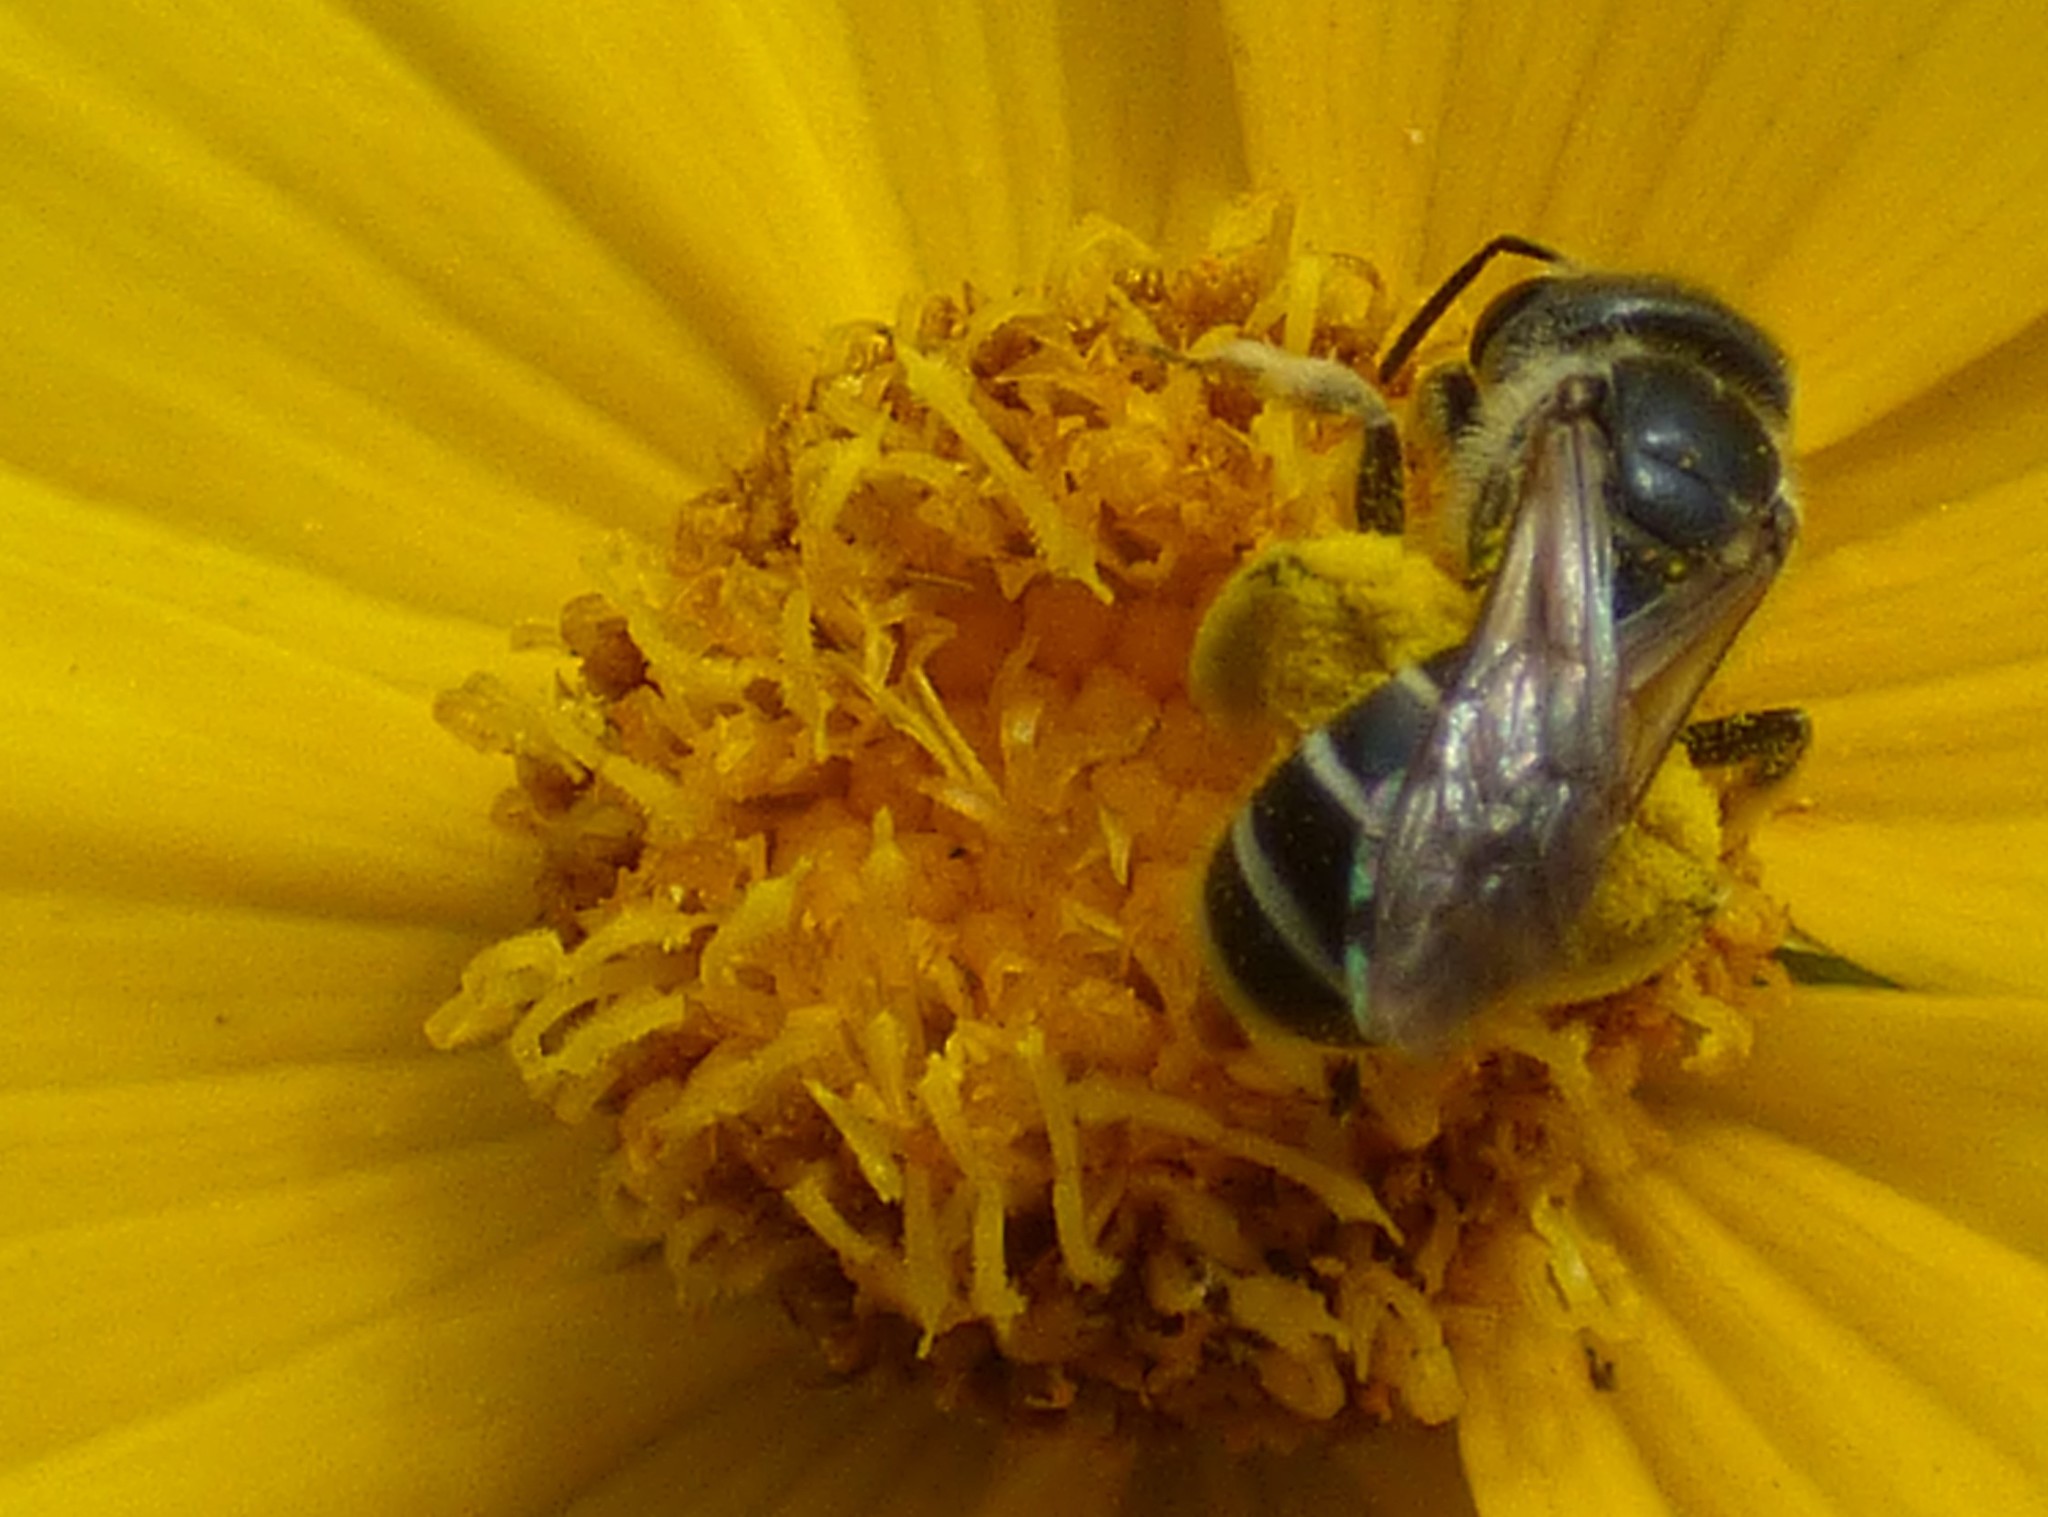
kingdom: Animalia
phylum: Arthropoda
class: Insecta
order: Hymenoptera
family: Halictidae
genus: Halictus
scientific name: Halictus poeyi
